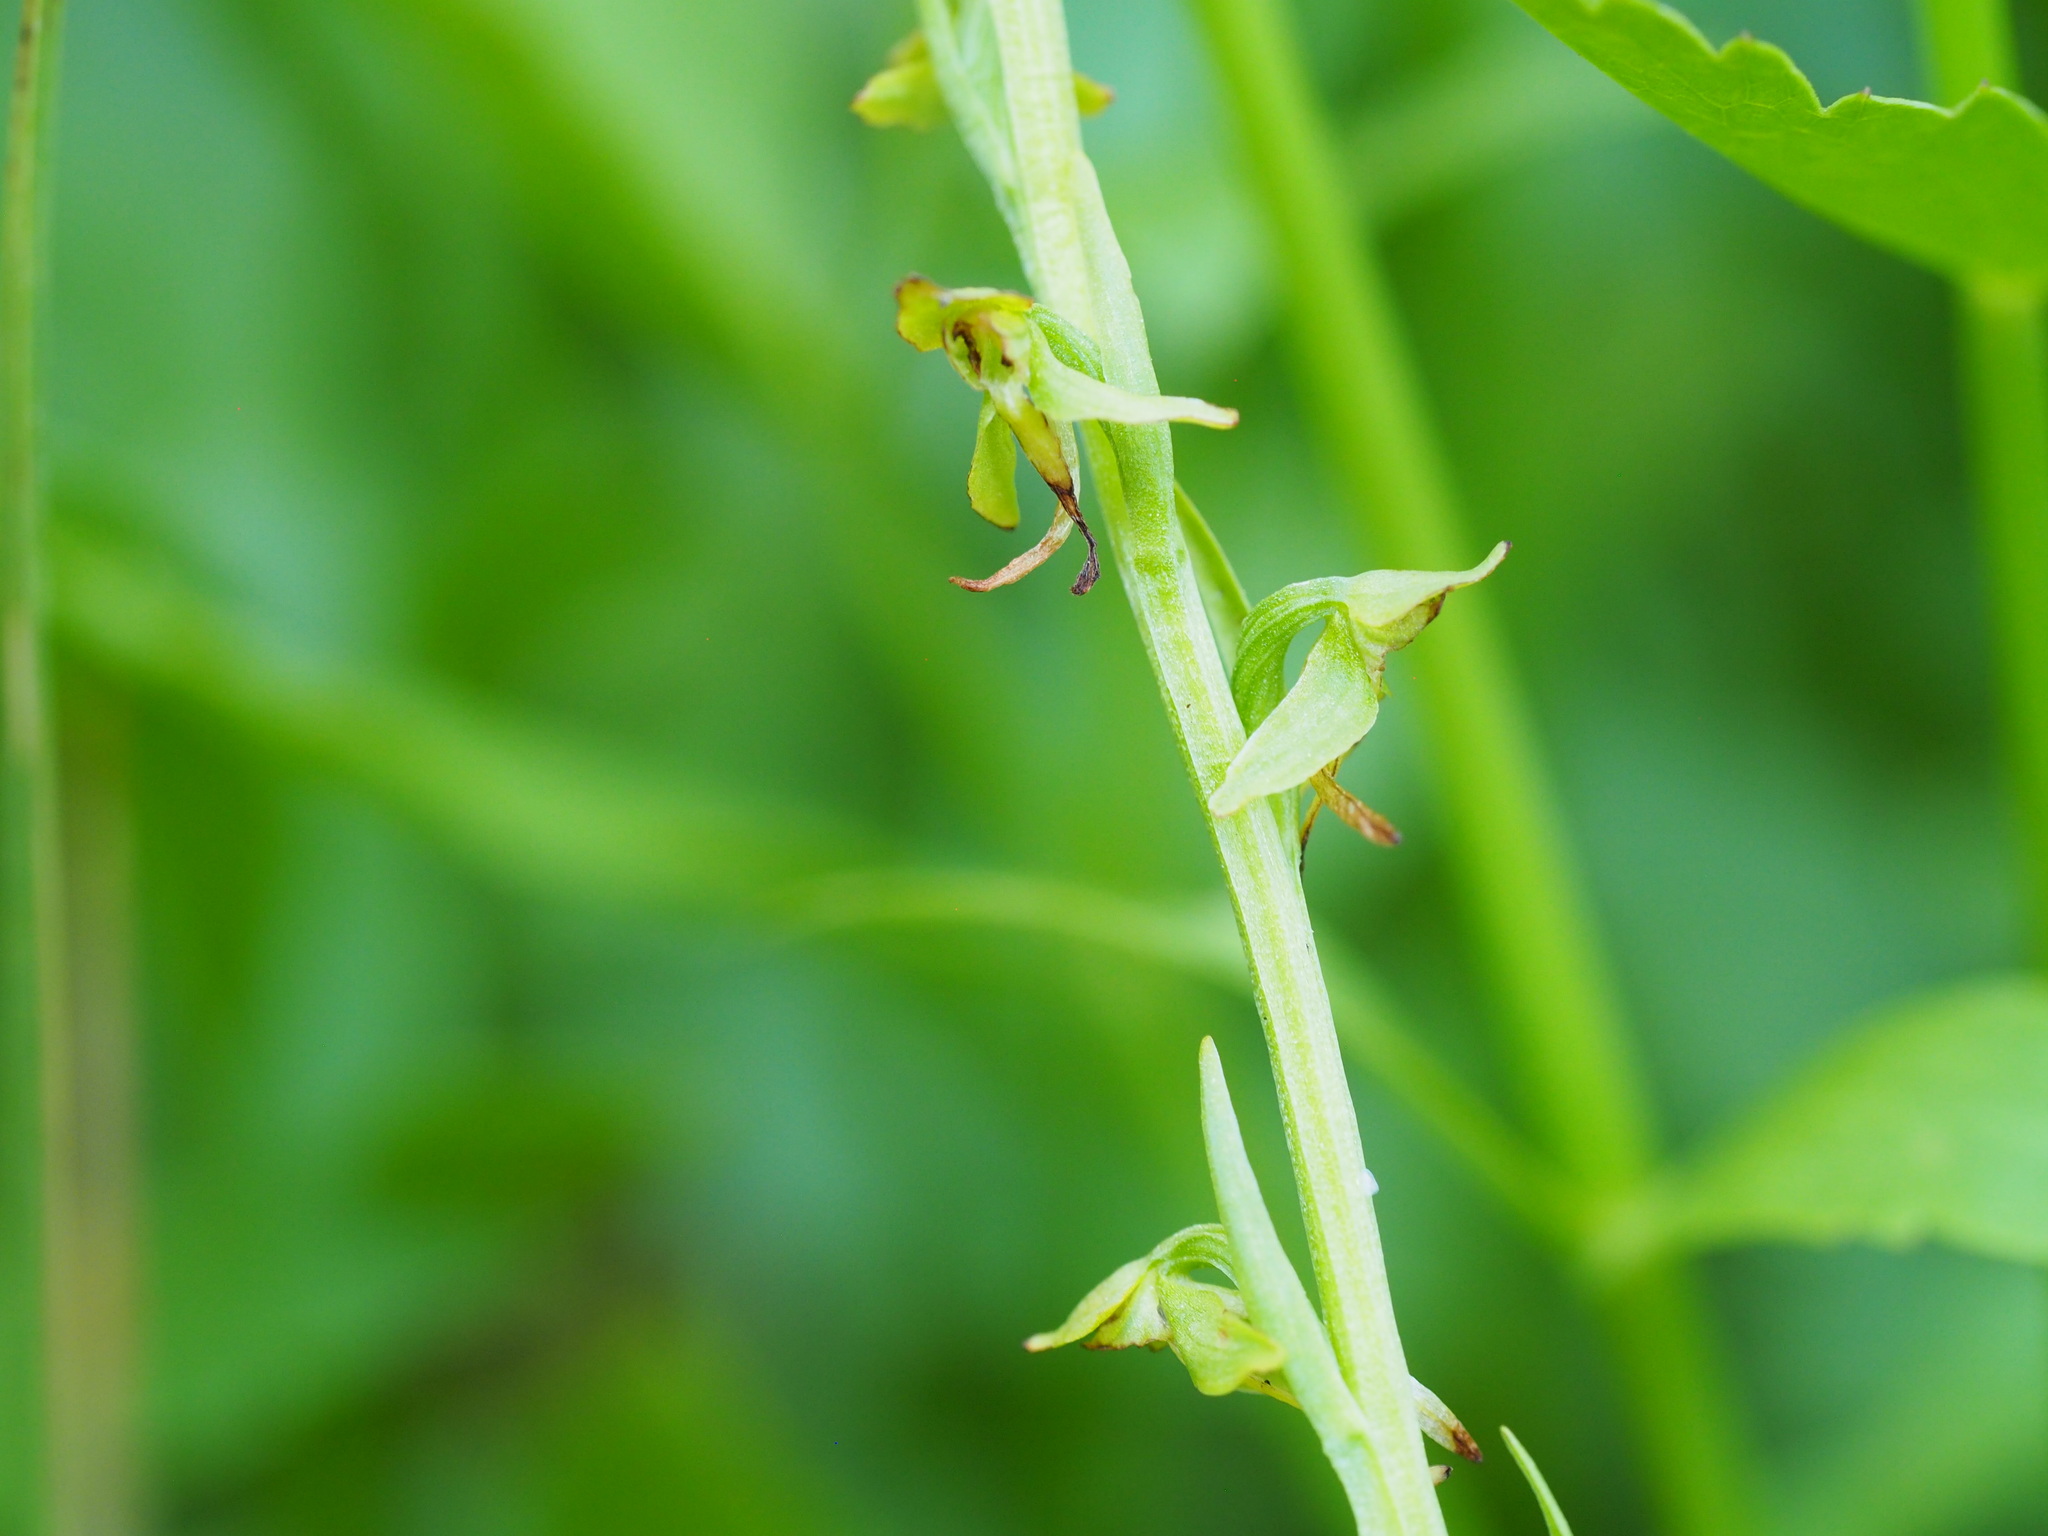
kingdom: Plantae
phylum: Tracheophyta
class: Liliopsida
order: Asparagales
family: Orchidaceae
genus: Platanthera
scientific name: Platanthera sparsiflora
